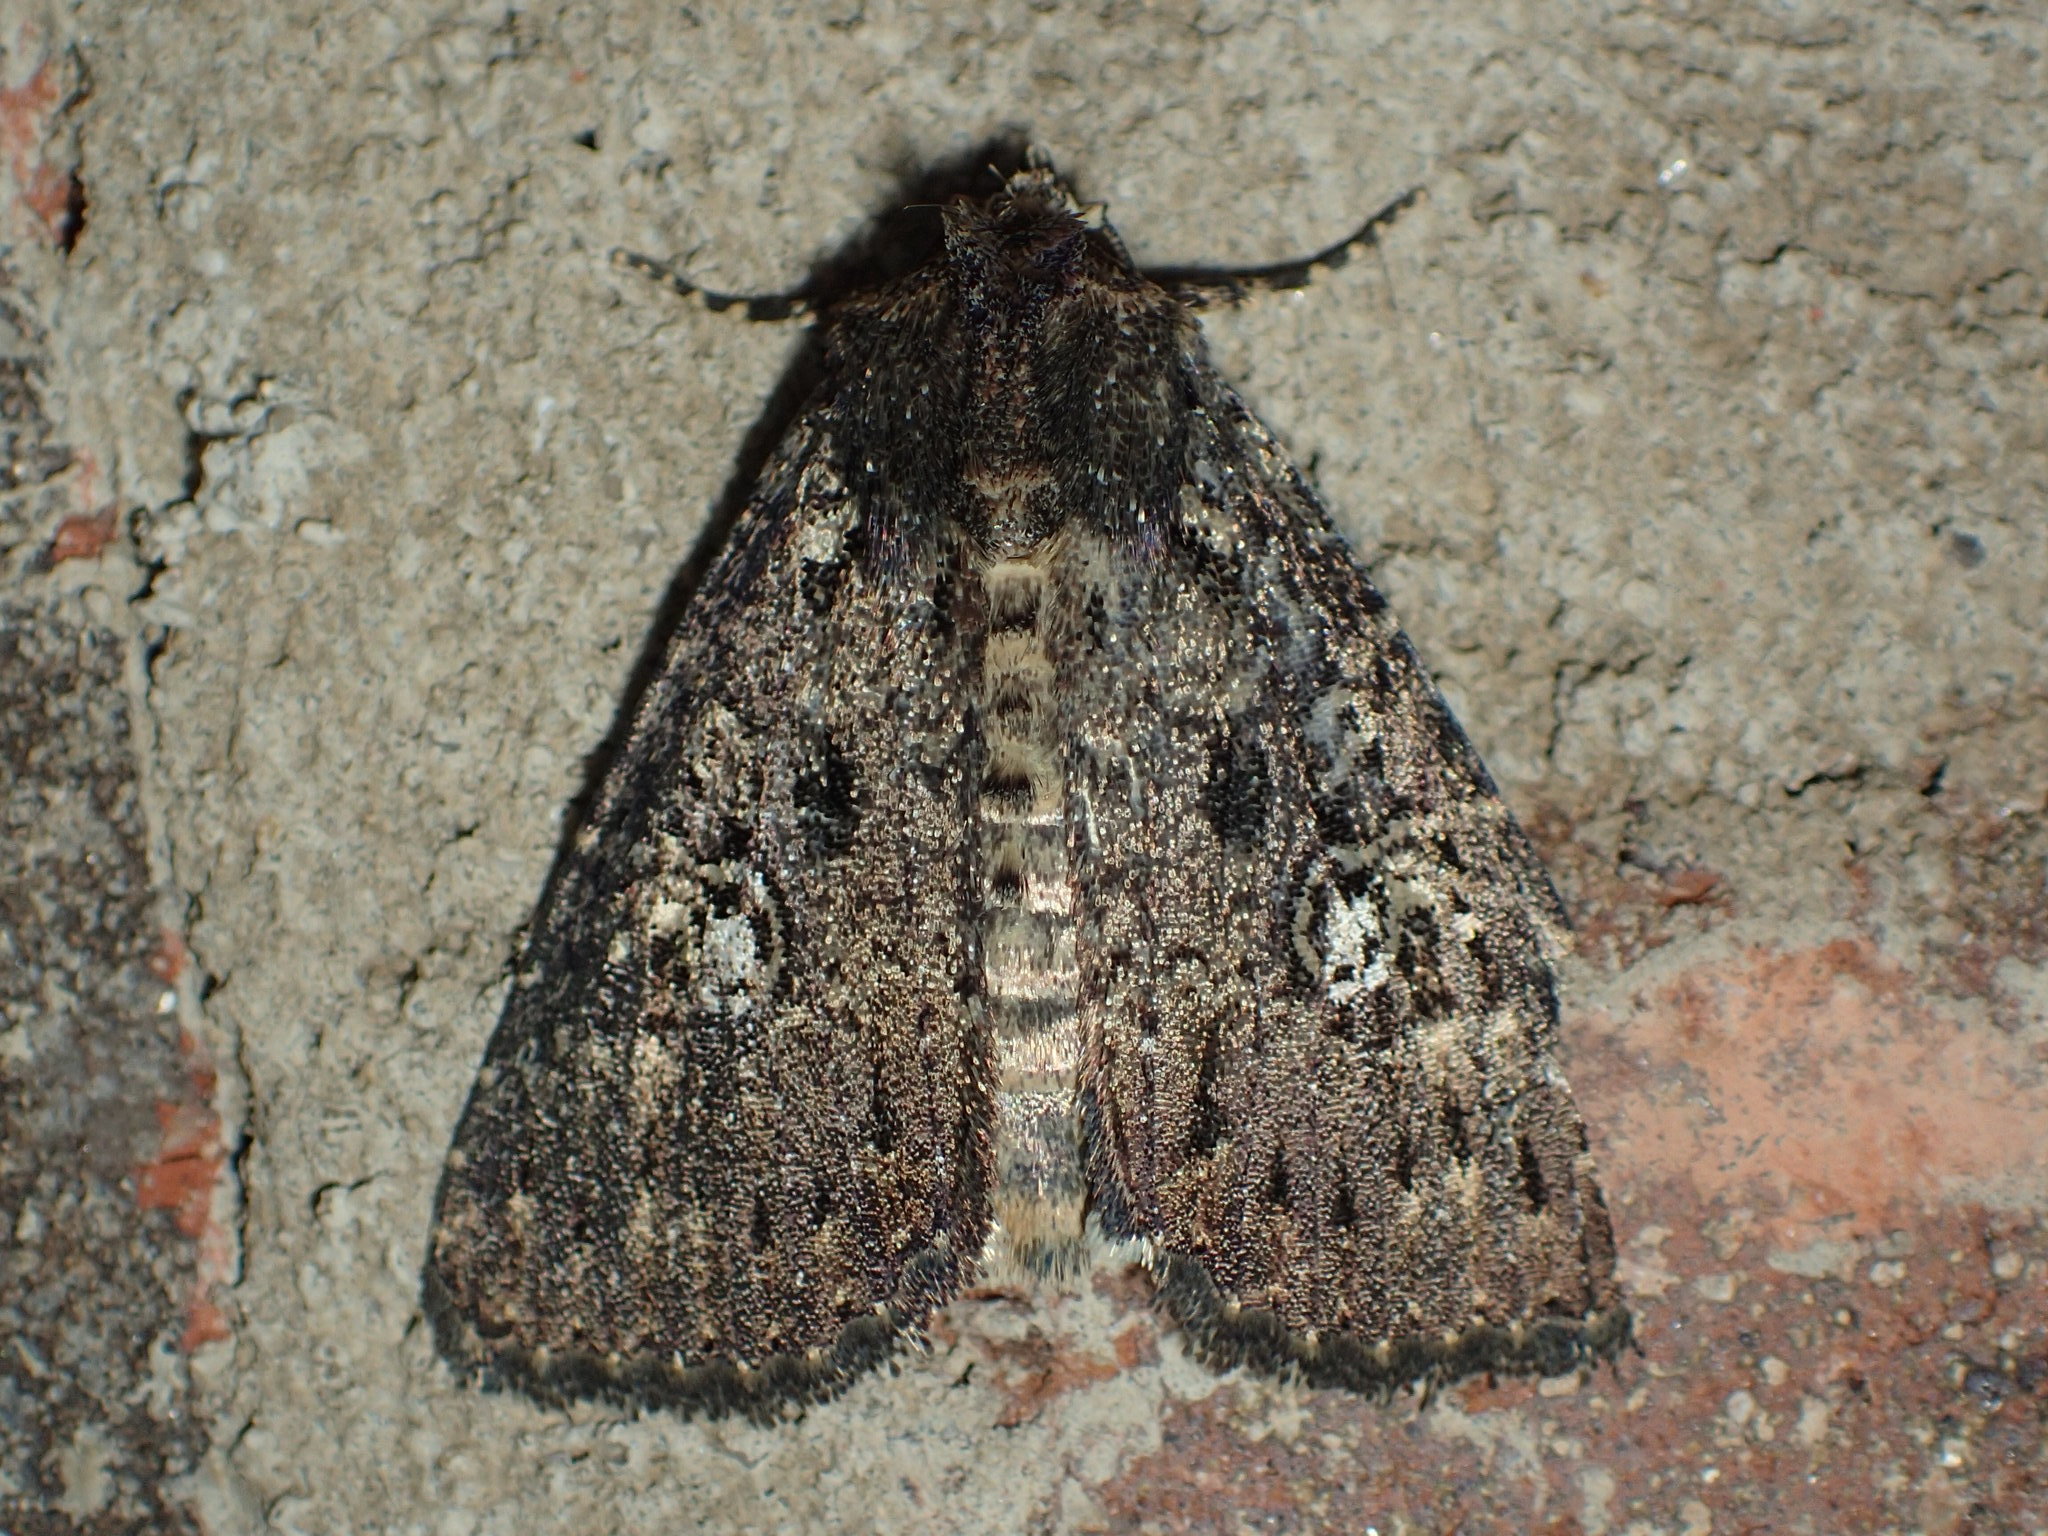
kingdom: Animalia
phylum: Arthropoda
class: Insecta
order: Lepidoptera
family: Noctuidae
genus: Condica
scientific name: Condica vecors
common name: Dusky groundling
